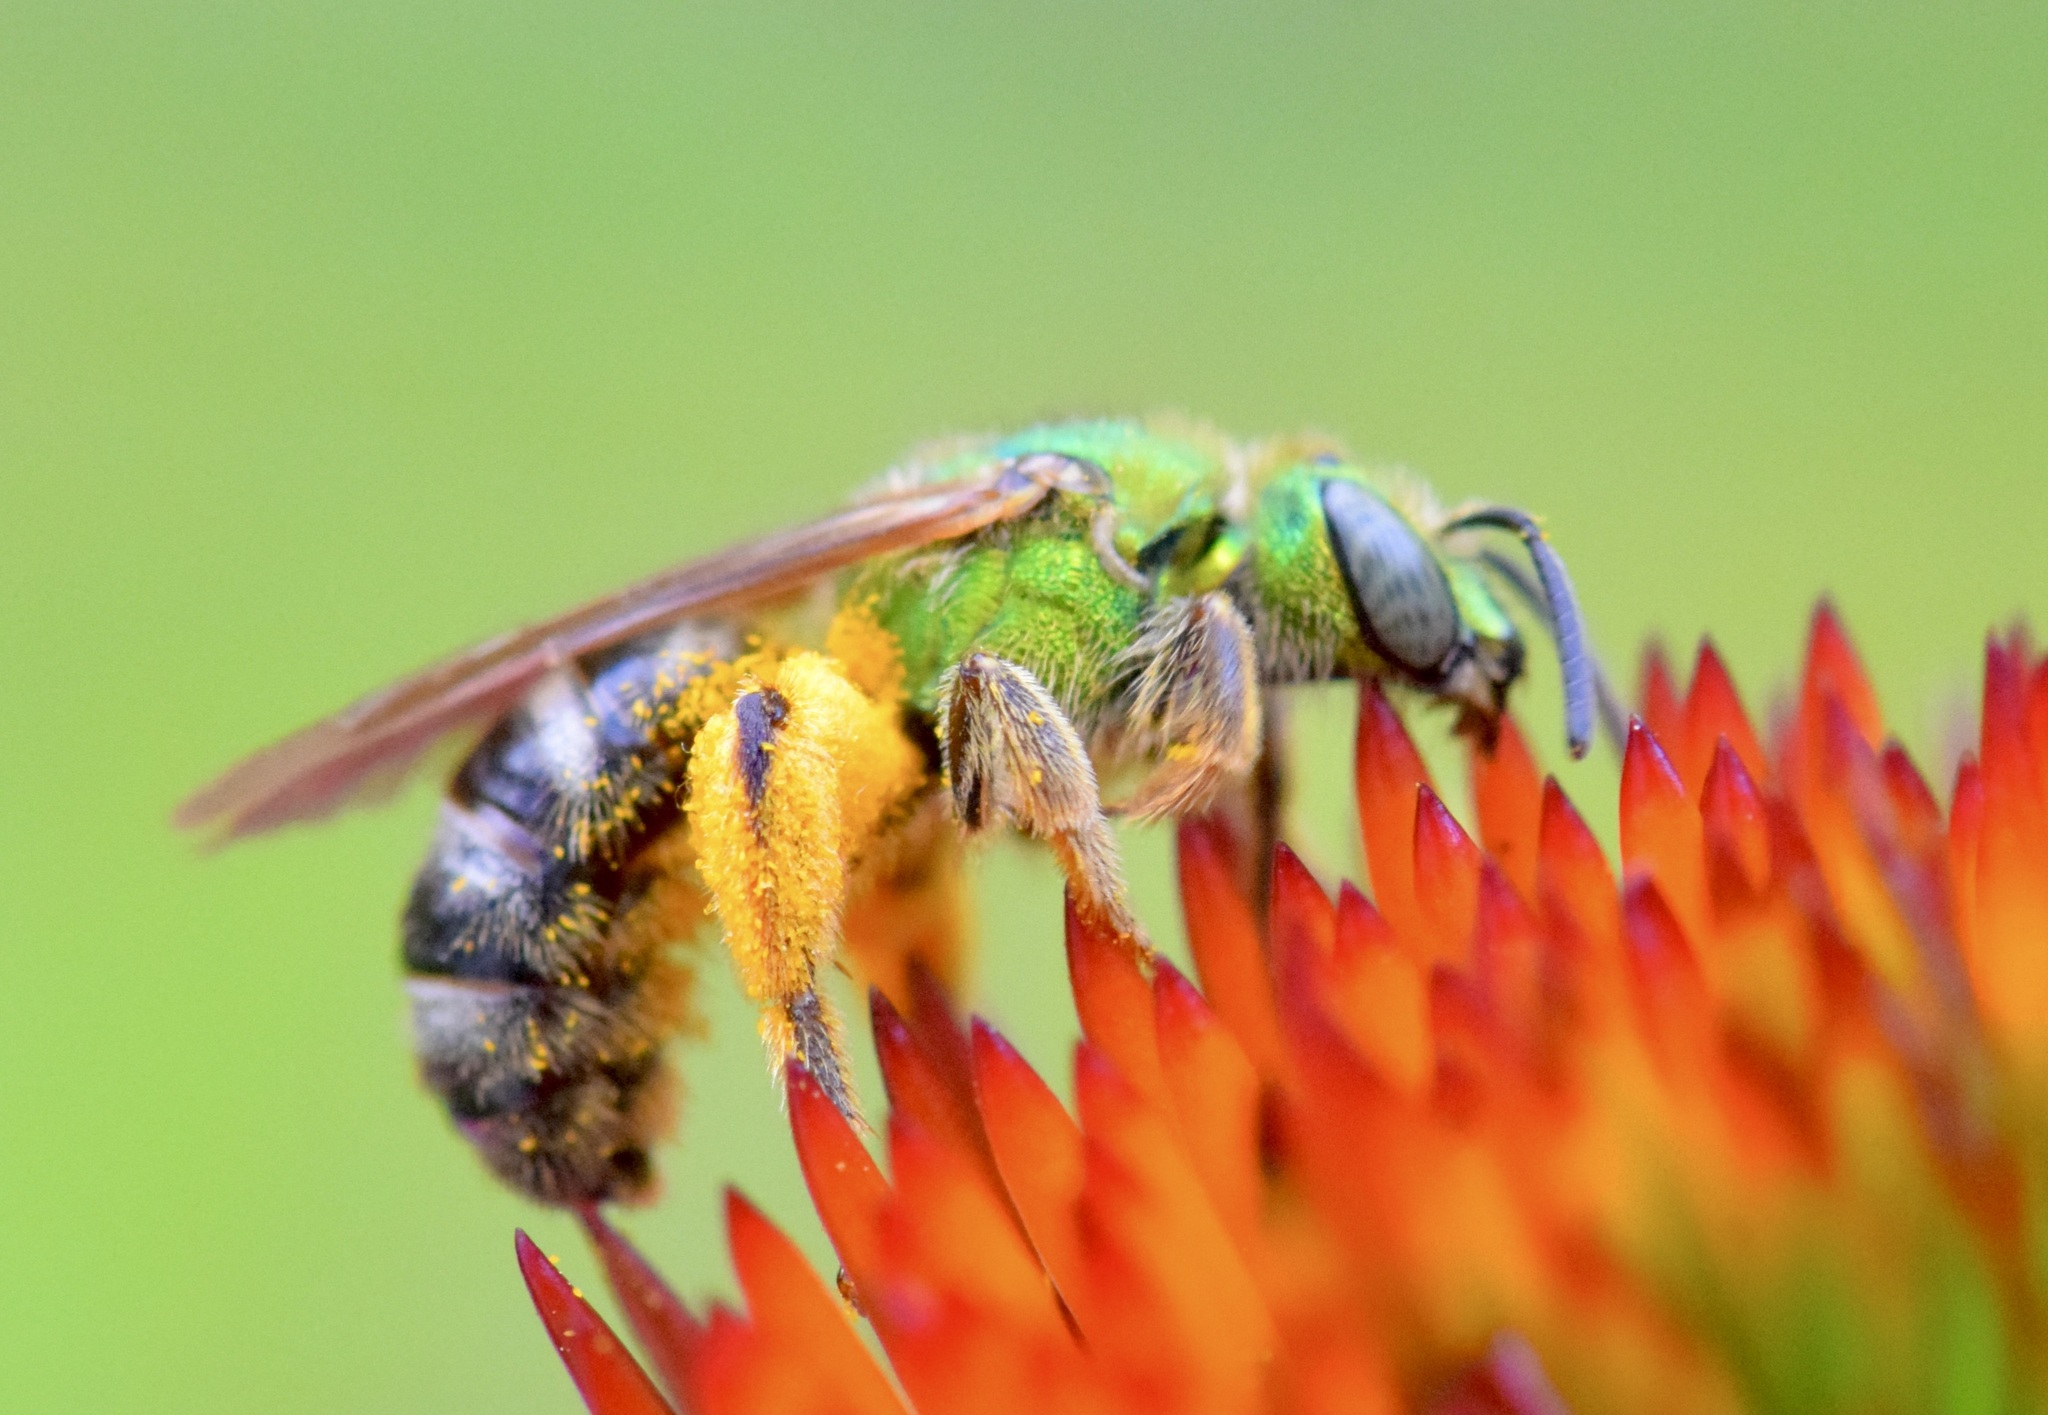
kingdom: Animalia
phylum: Arthropoda
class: Insecta
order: Hymenoptera
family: Halictidae
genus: Agapostemon
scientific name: Agapostemon virescens
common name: Bicolored striped sweat bee
